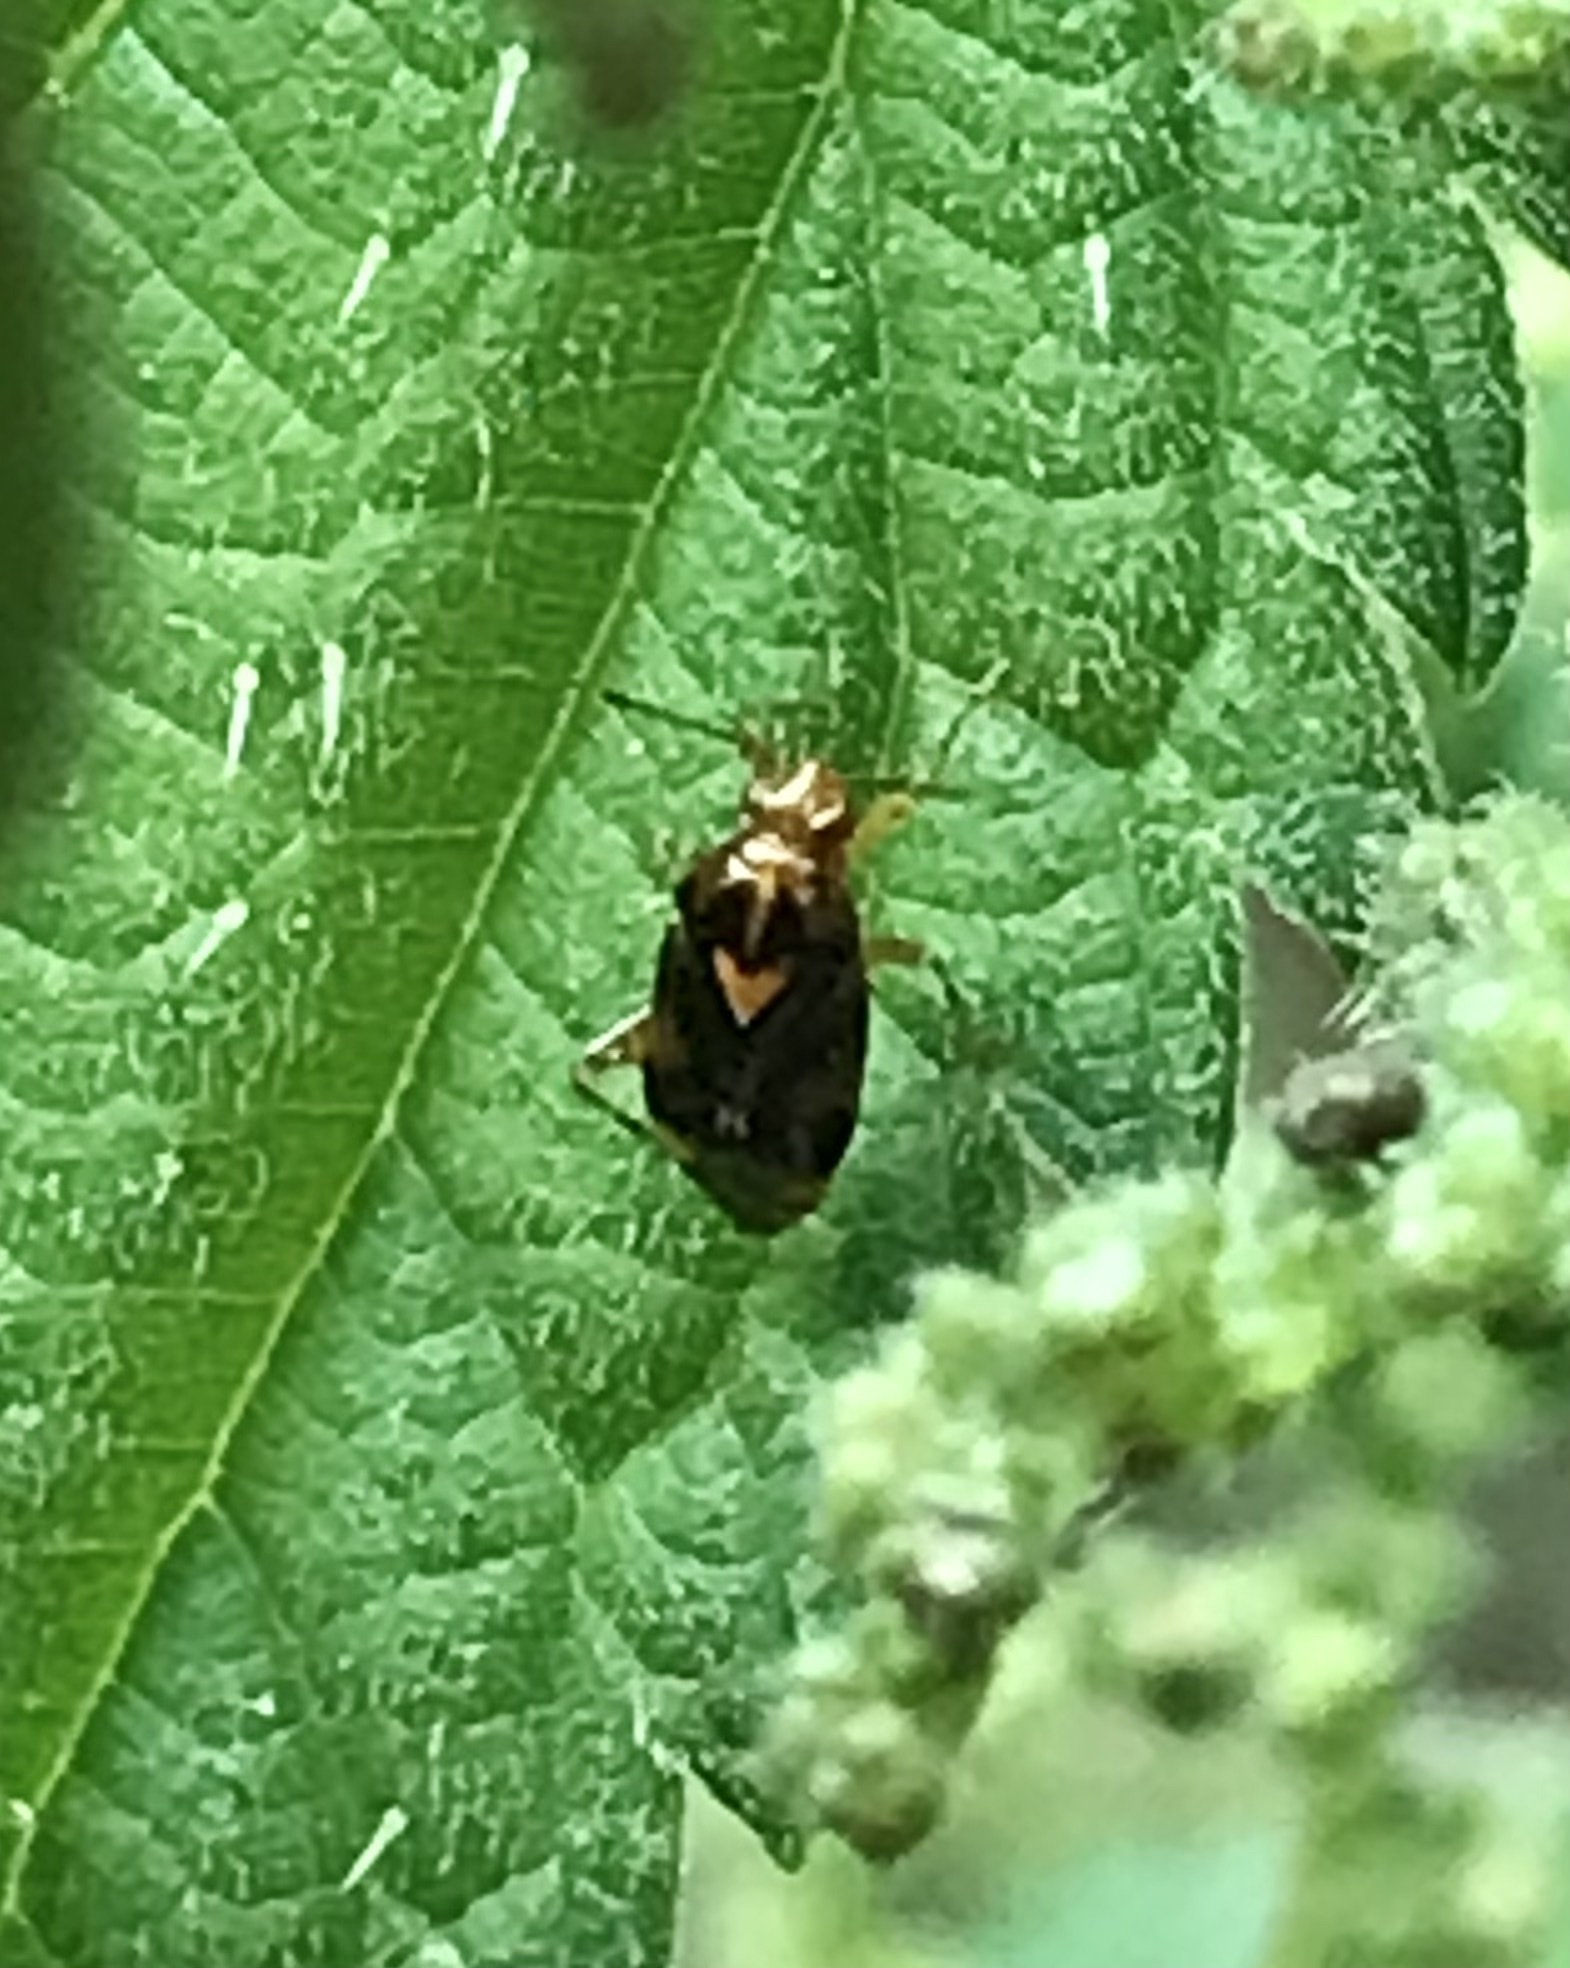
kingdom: Animalia
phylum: Arthropoda
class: Insecta
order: Hemiptera
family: Miridae
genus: Liocoris
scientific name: Liocoris tripustulatus
